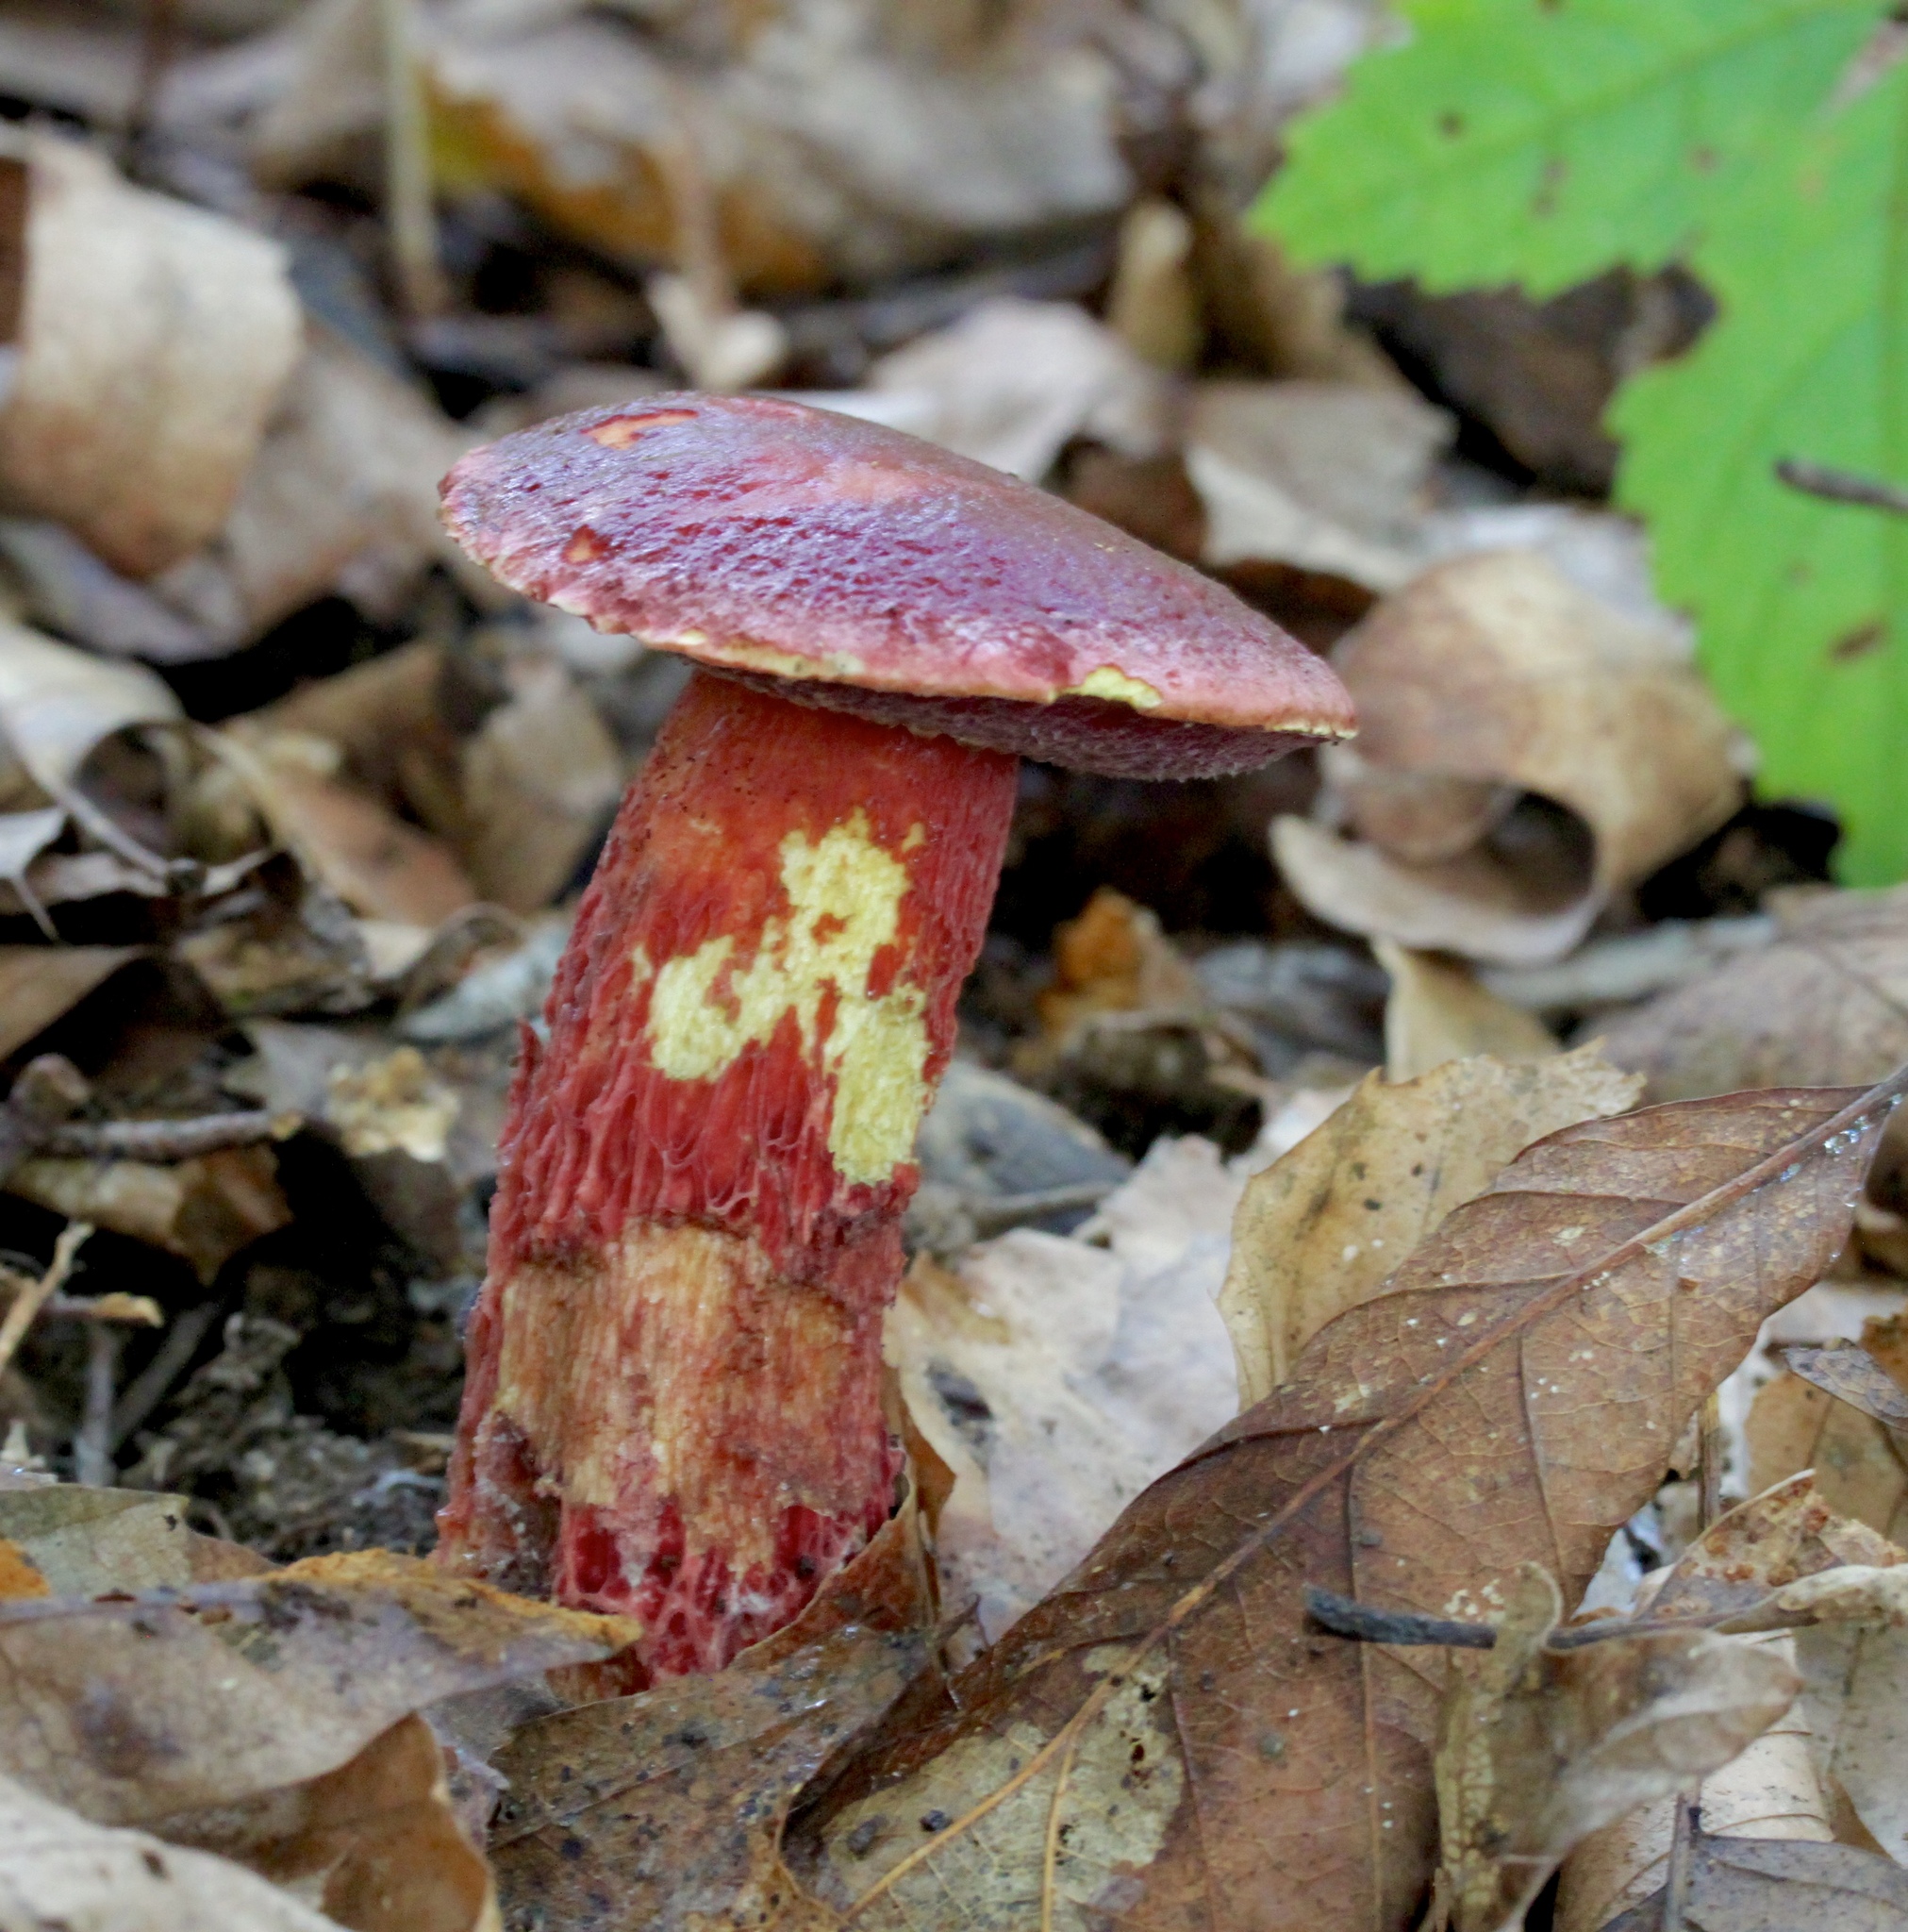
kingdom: Fungi
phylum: Basidiomycota
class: Agaricomycetes
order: Boletales
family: Boletaceae
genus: Butyriboletus
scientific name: Butyriboletus frostii
